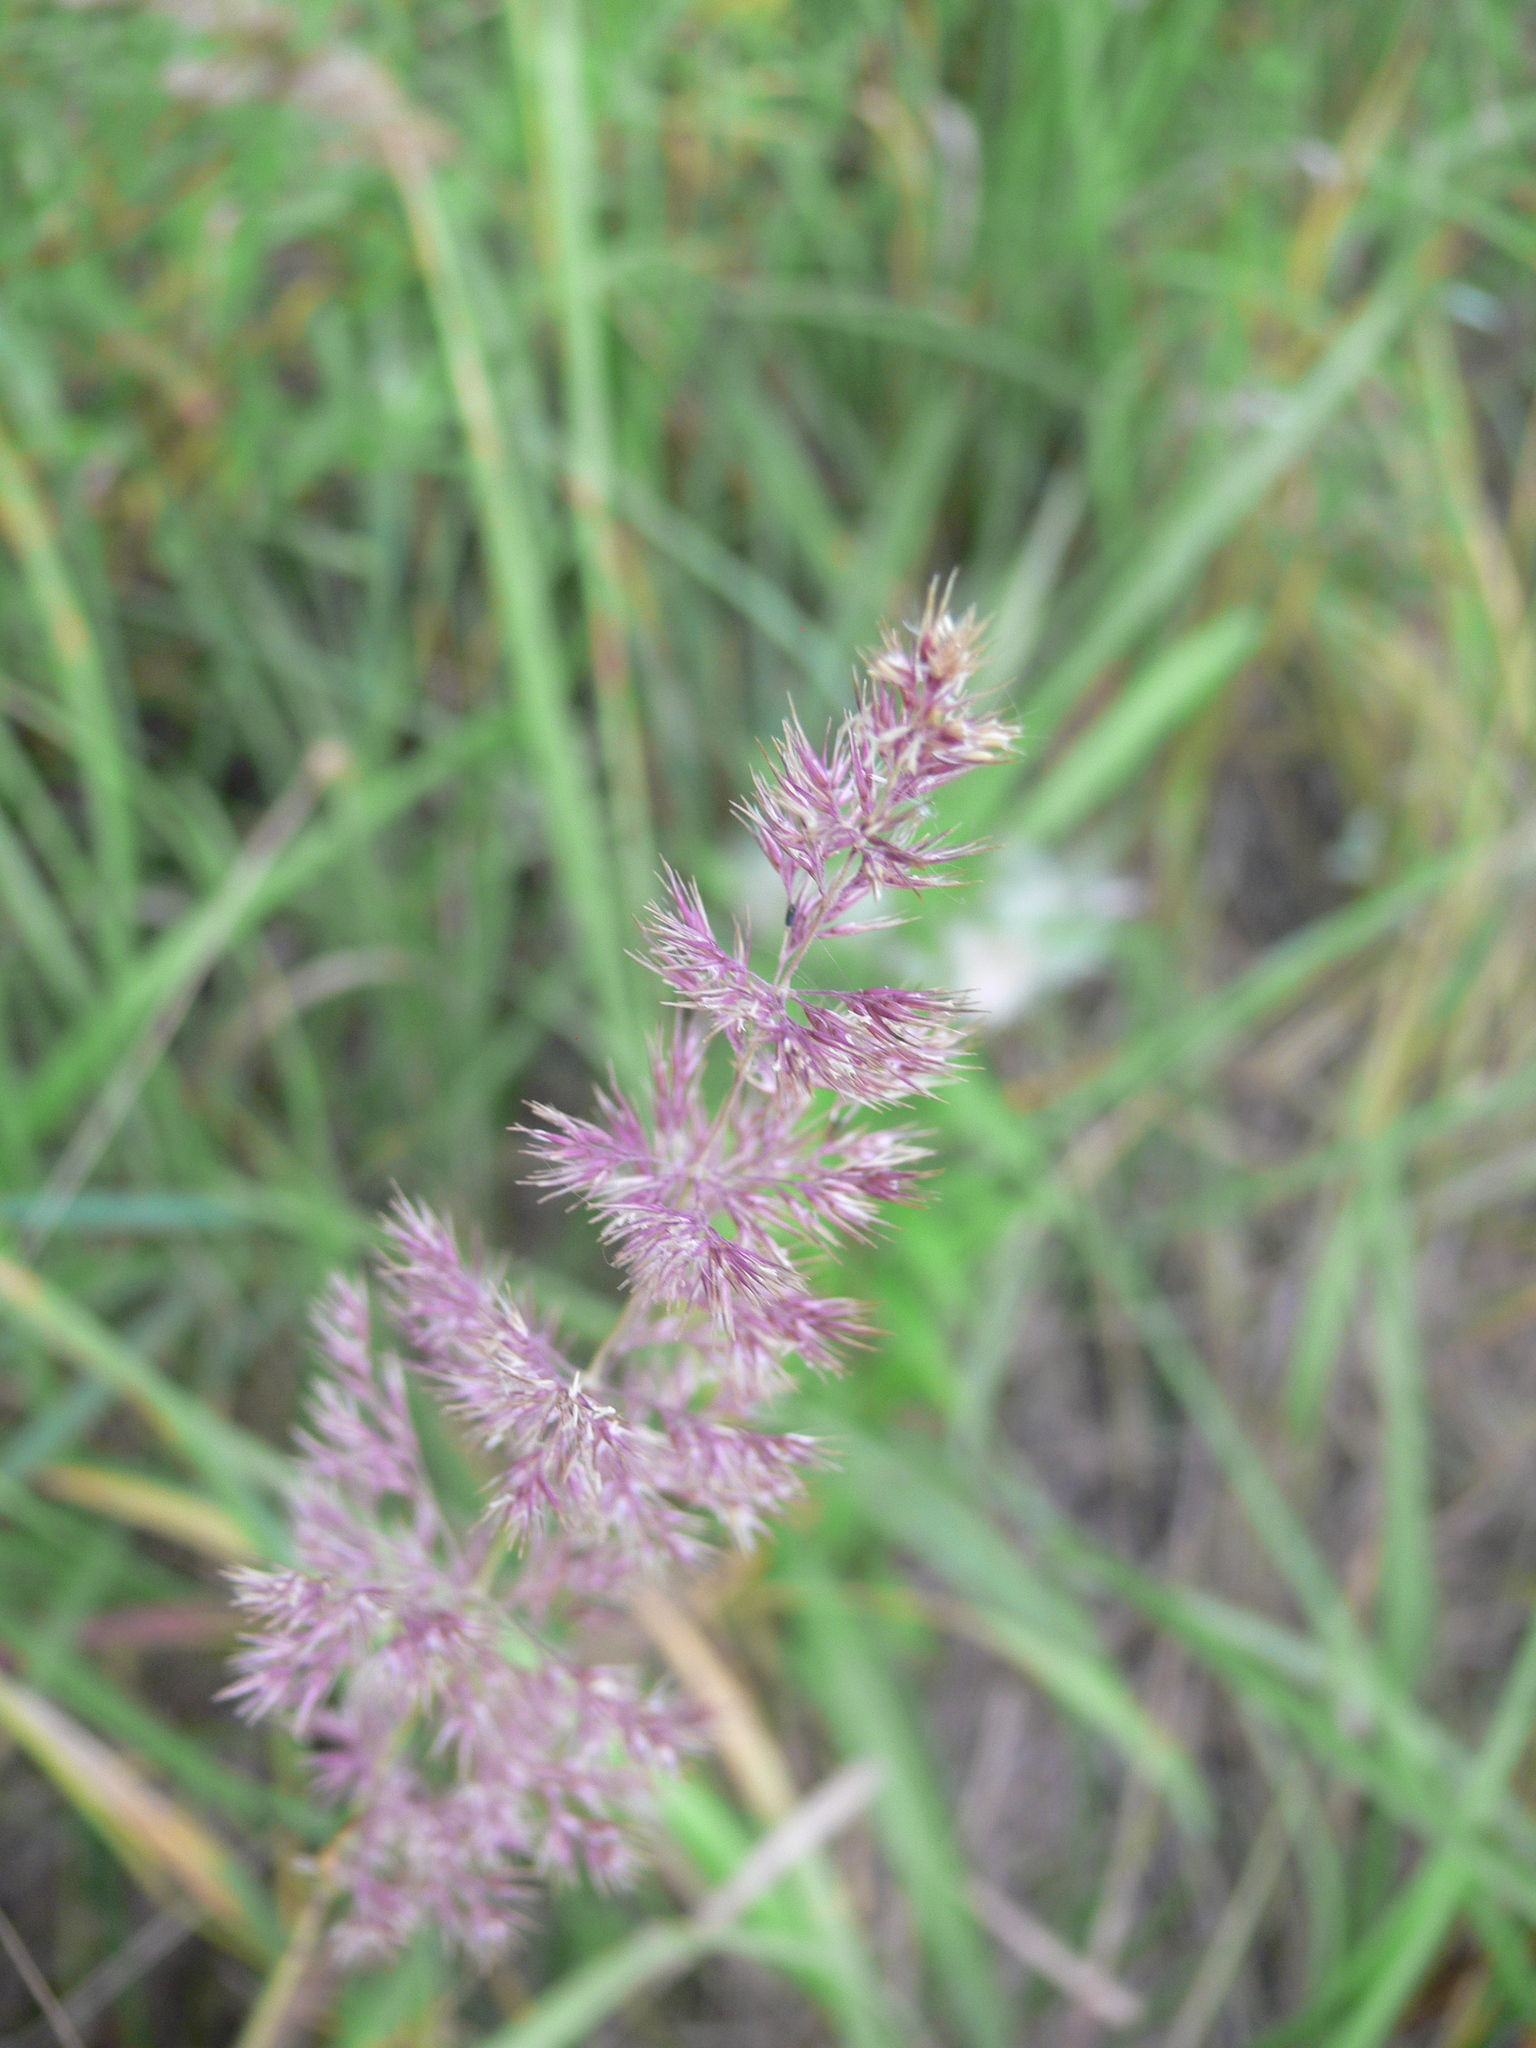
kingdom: Plantae
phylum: Tracheophyta
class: Liliopsida
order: Poales
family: Poaceae
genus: Calamagrostis
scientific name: Calamagrostis epigejos
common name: Wood small-reed
